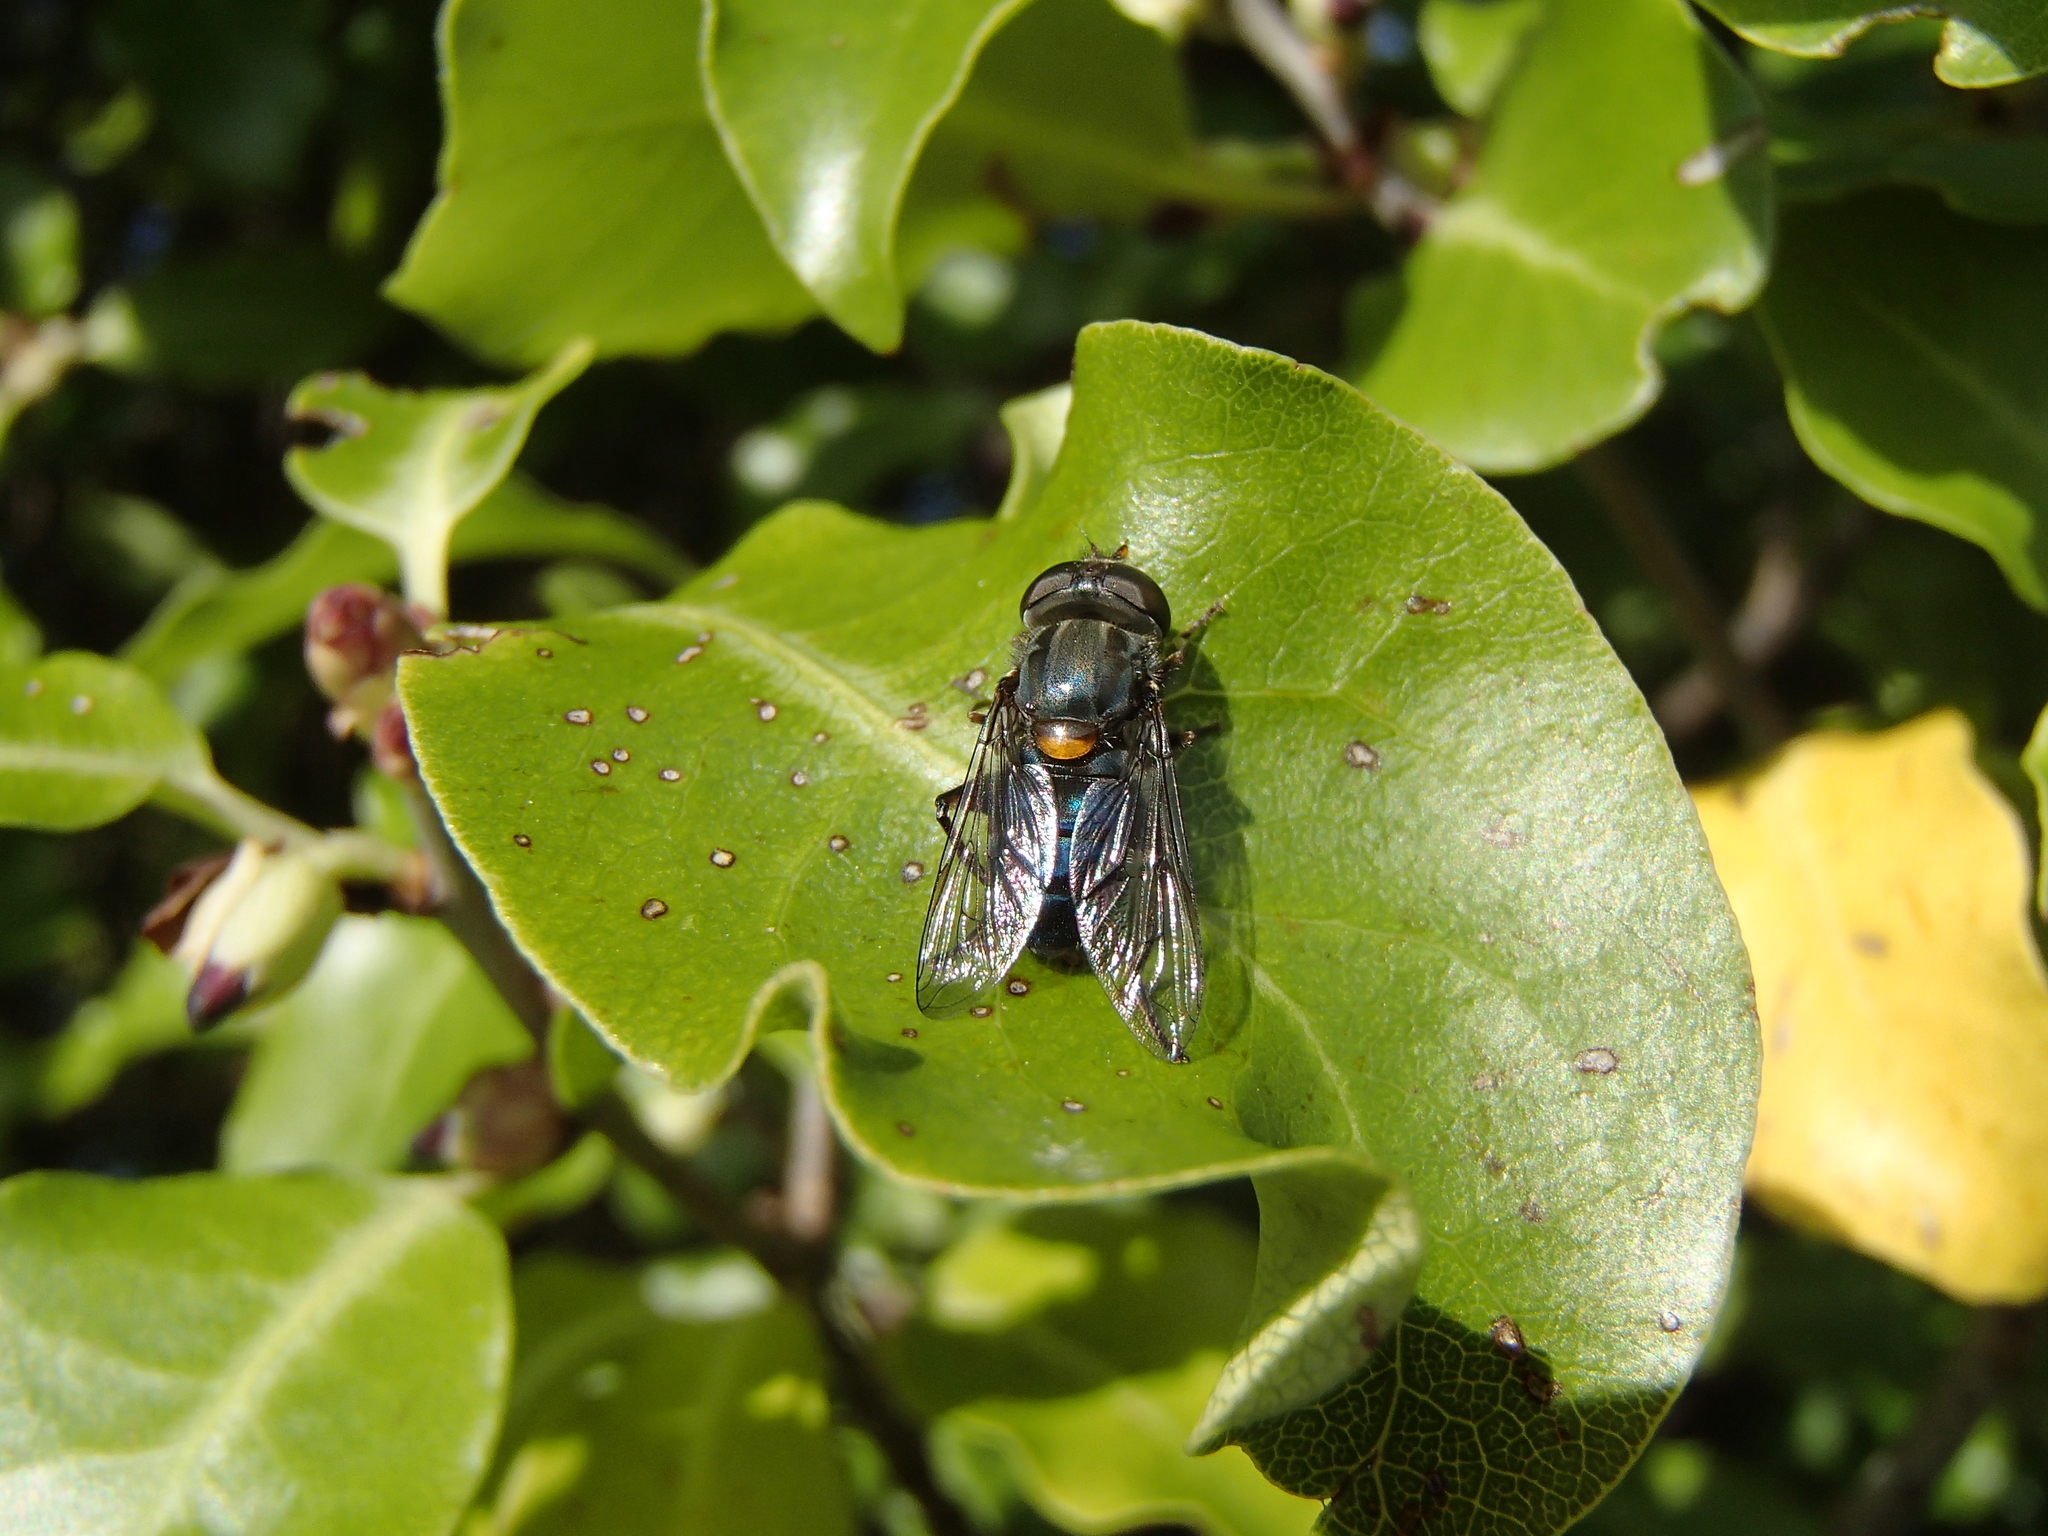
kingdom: Animalia
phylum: Arthropoda
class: Insecta
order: Diptera
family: Syrphidae
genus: Helophilus
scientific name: Helophilus hochstetteri
